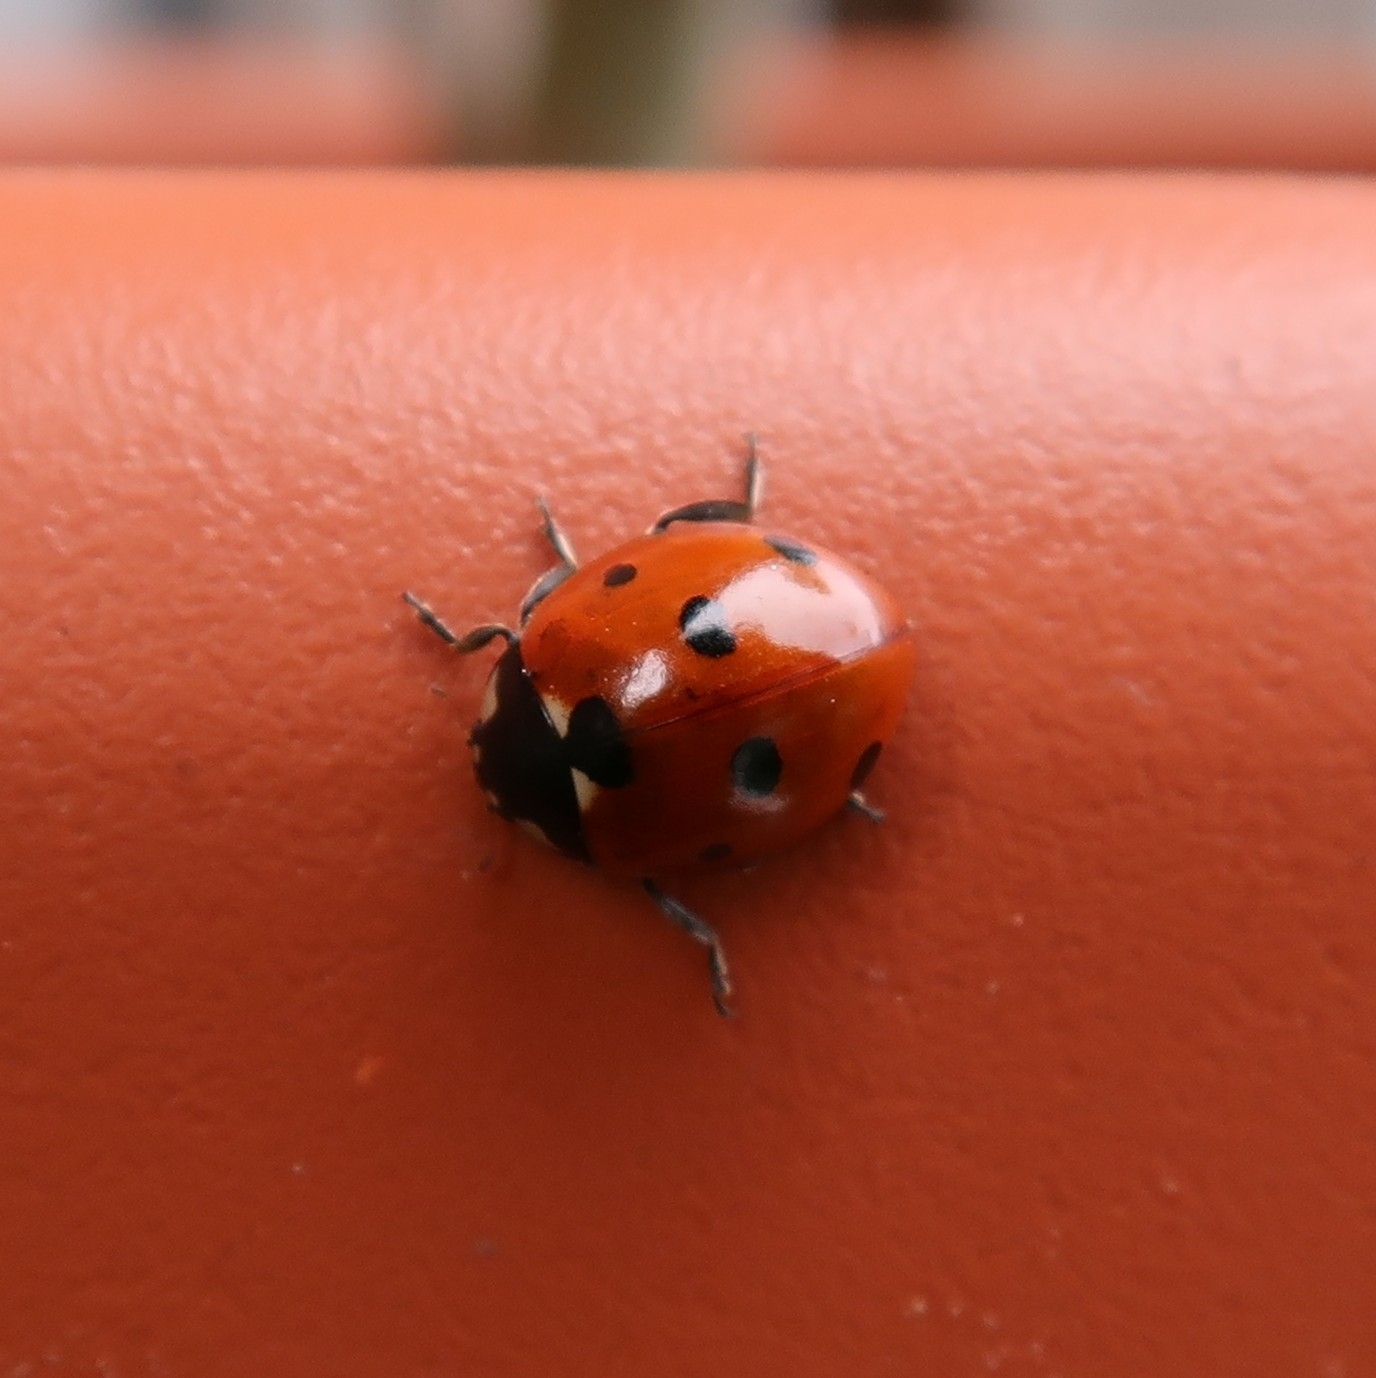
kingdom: Animalia
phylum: Arthropoda
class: Insecta
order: Coleoptera
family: Coccinellidae
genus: Coccinella
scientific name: Coccinella septempunctata
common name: Sevenspotted lady beetle
